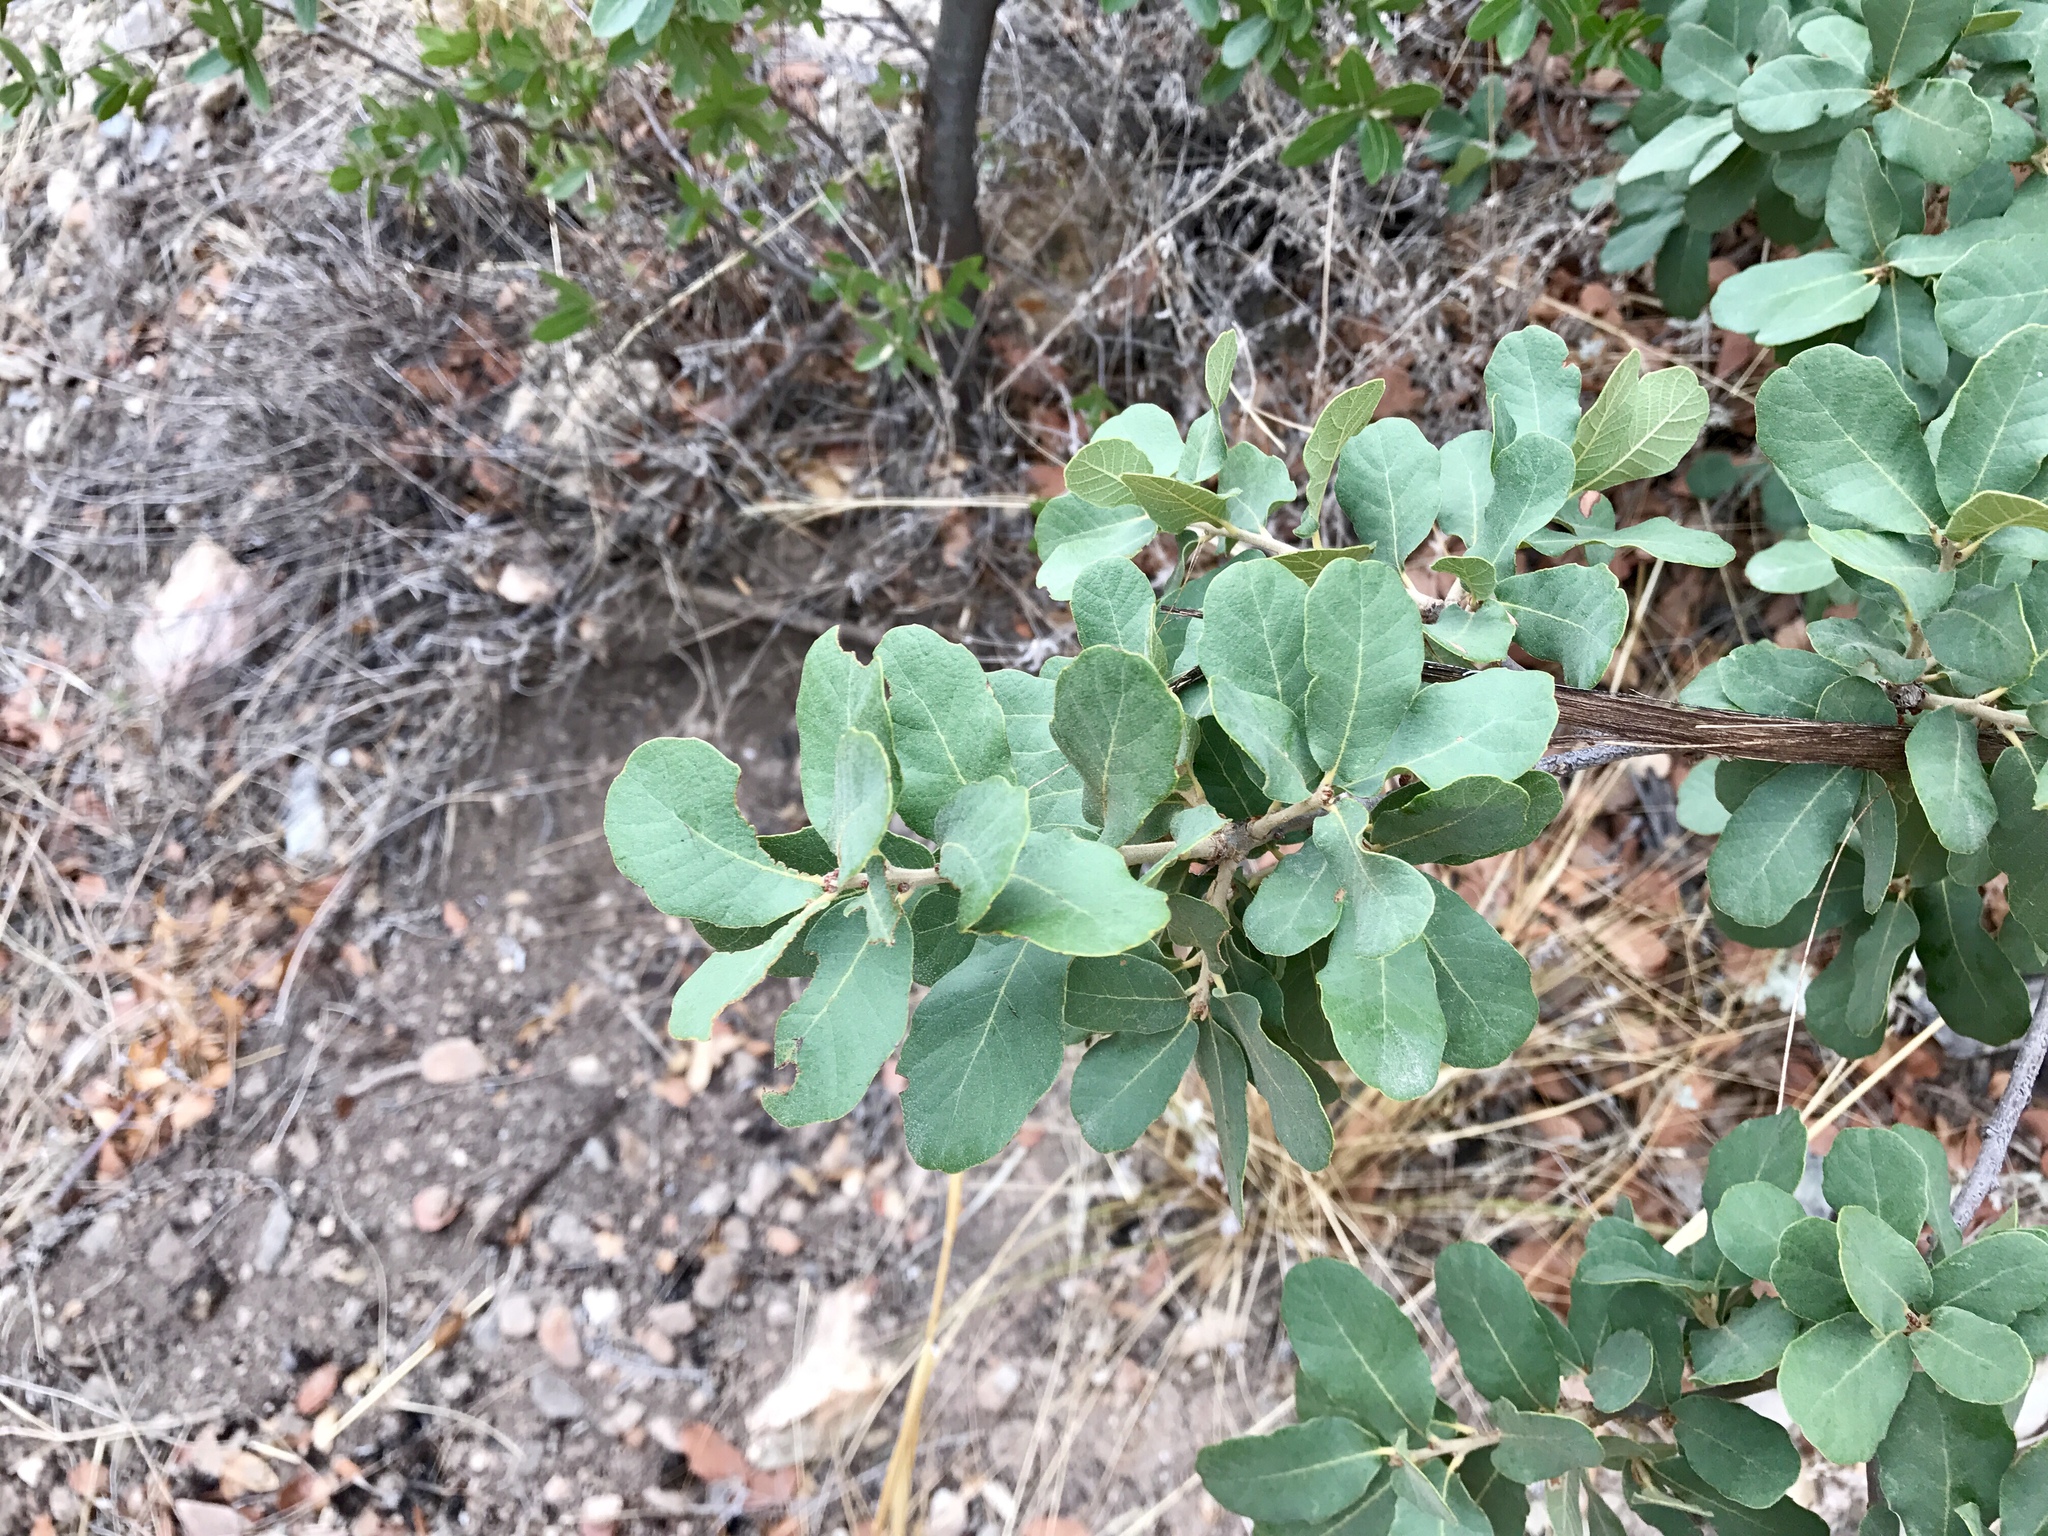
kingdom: Plantae
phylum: Tracheophyta
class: Magnoliopsida
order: Fagales
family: Fagaceae
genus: Quercus
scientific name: Quercus oblongifolia
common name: Mexican blue oak
